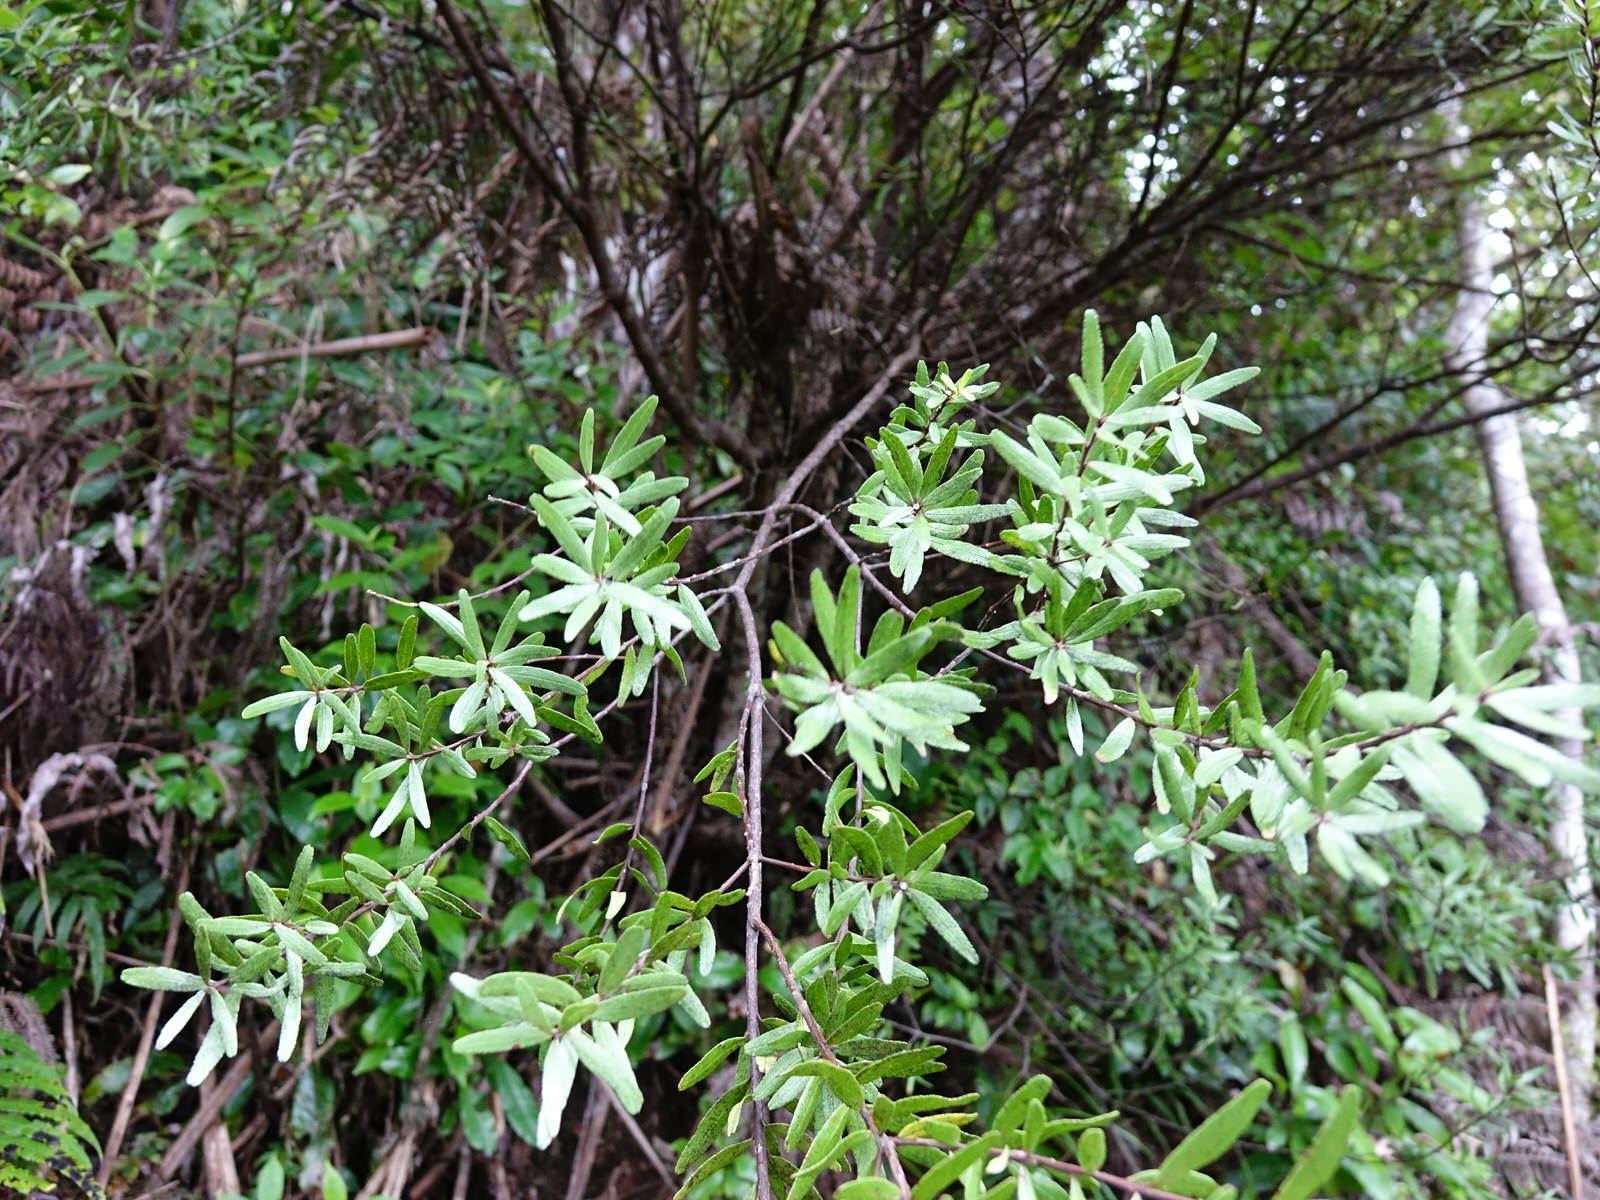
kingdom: Plantae
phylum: Tracheophyta
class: Magnoliopsida
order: Apiales
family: Pittosporaceae
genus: Pittosporum
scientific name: Pittosporum ellipticum
